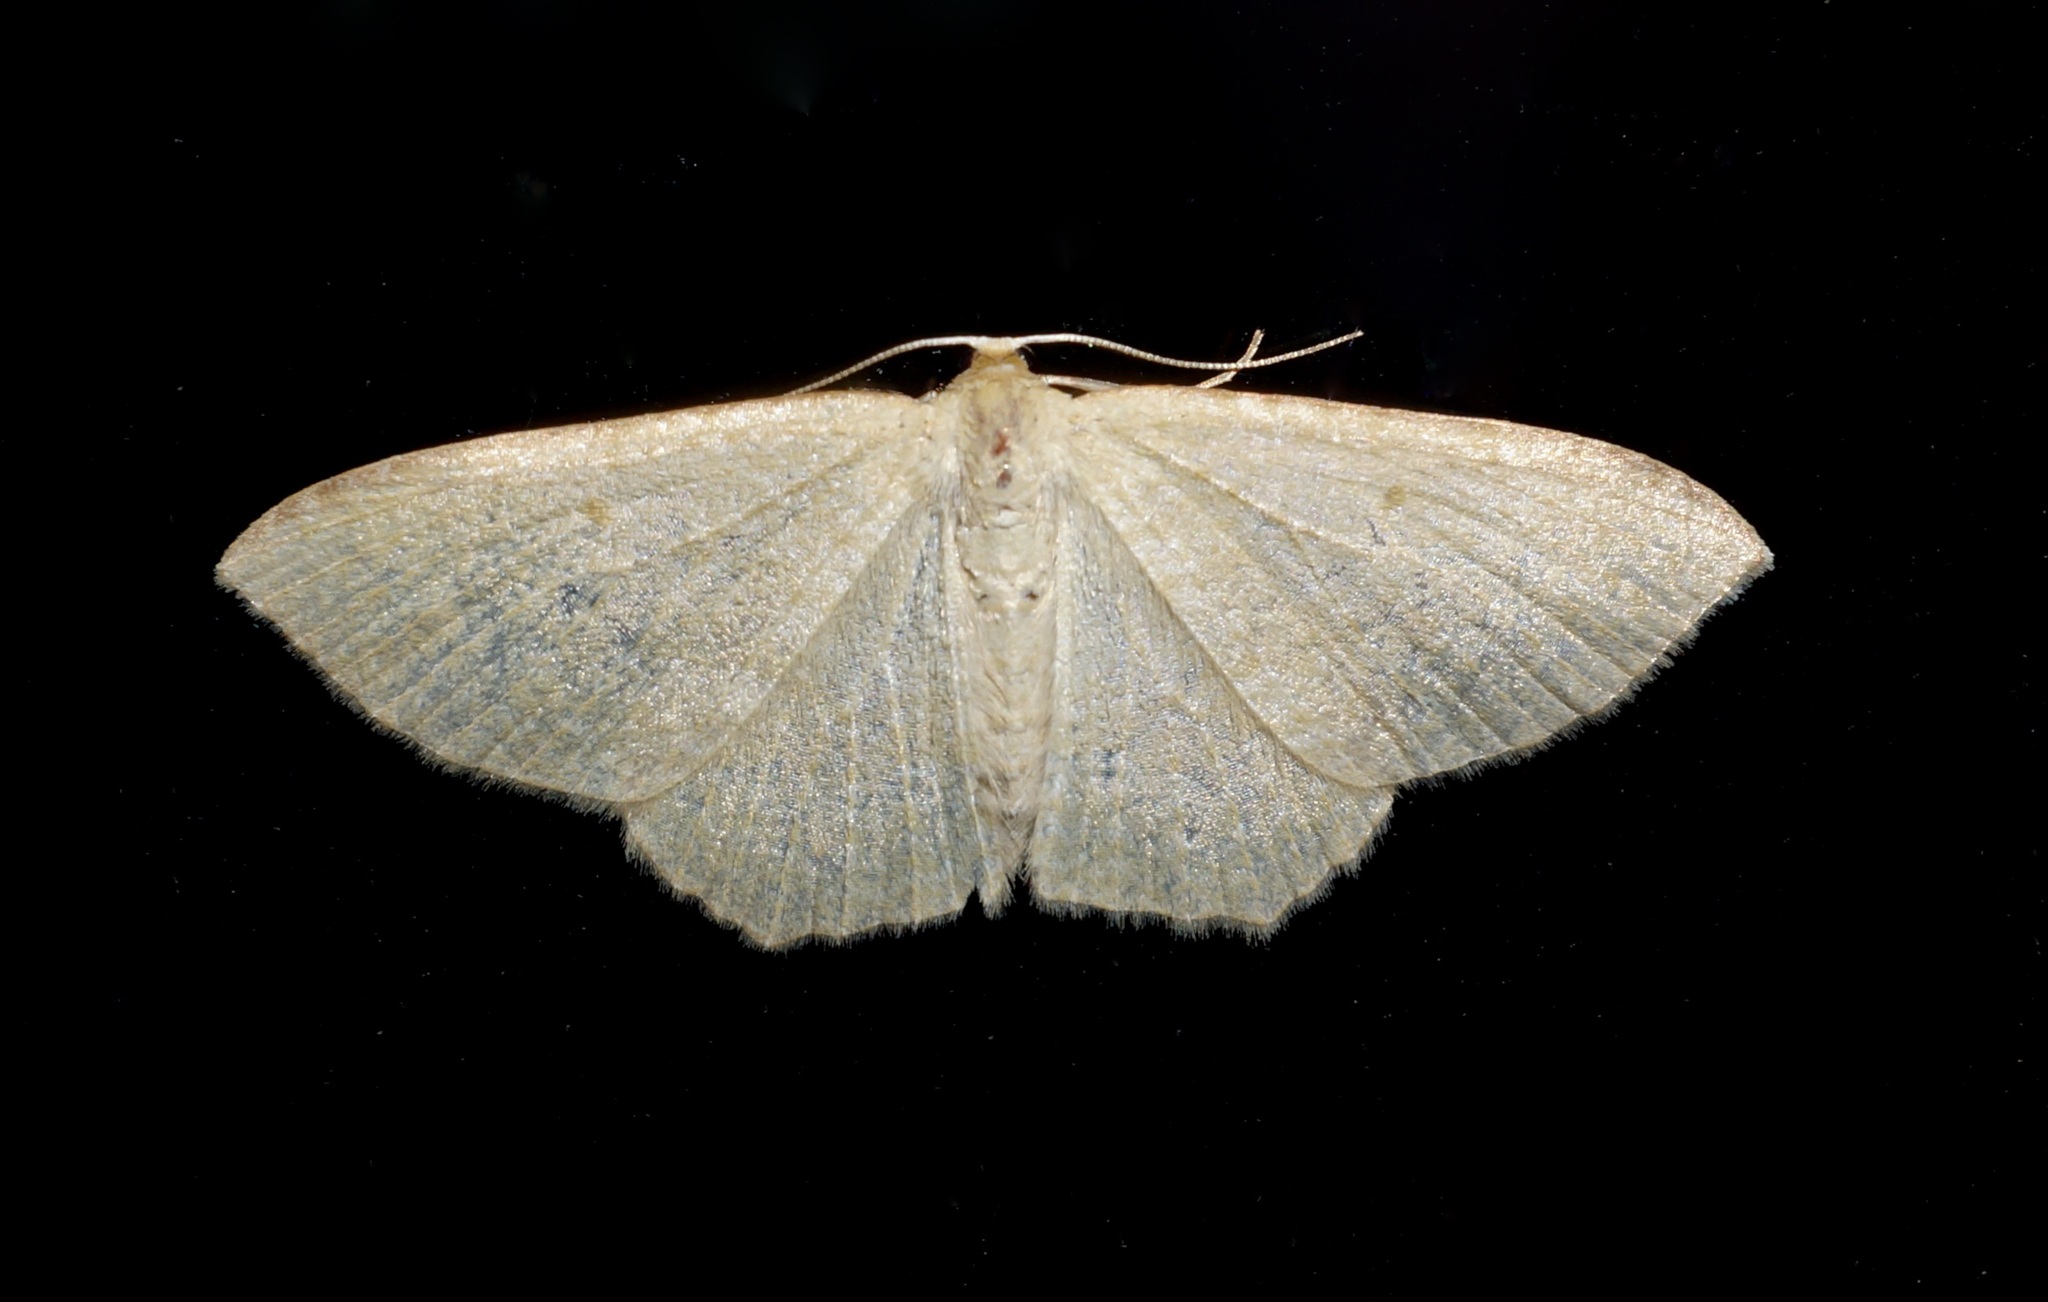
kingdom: Animalia
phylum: Arthropoda
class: Insecta
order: Lepidoptera
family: Geometridae
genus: Poecilasthena
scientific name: Poecilasthena pulchraria
